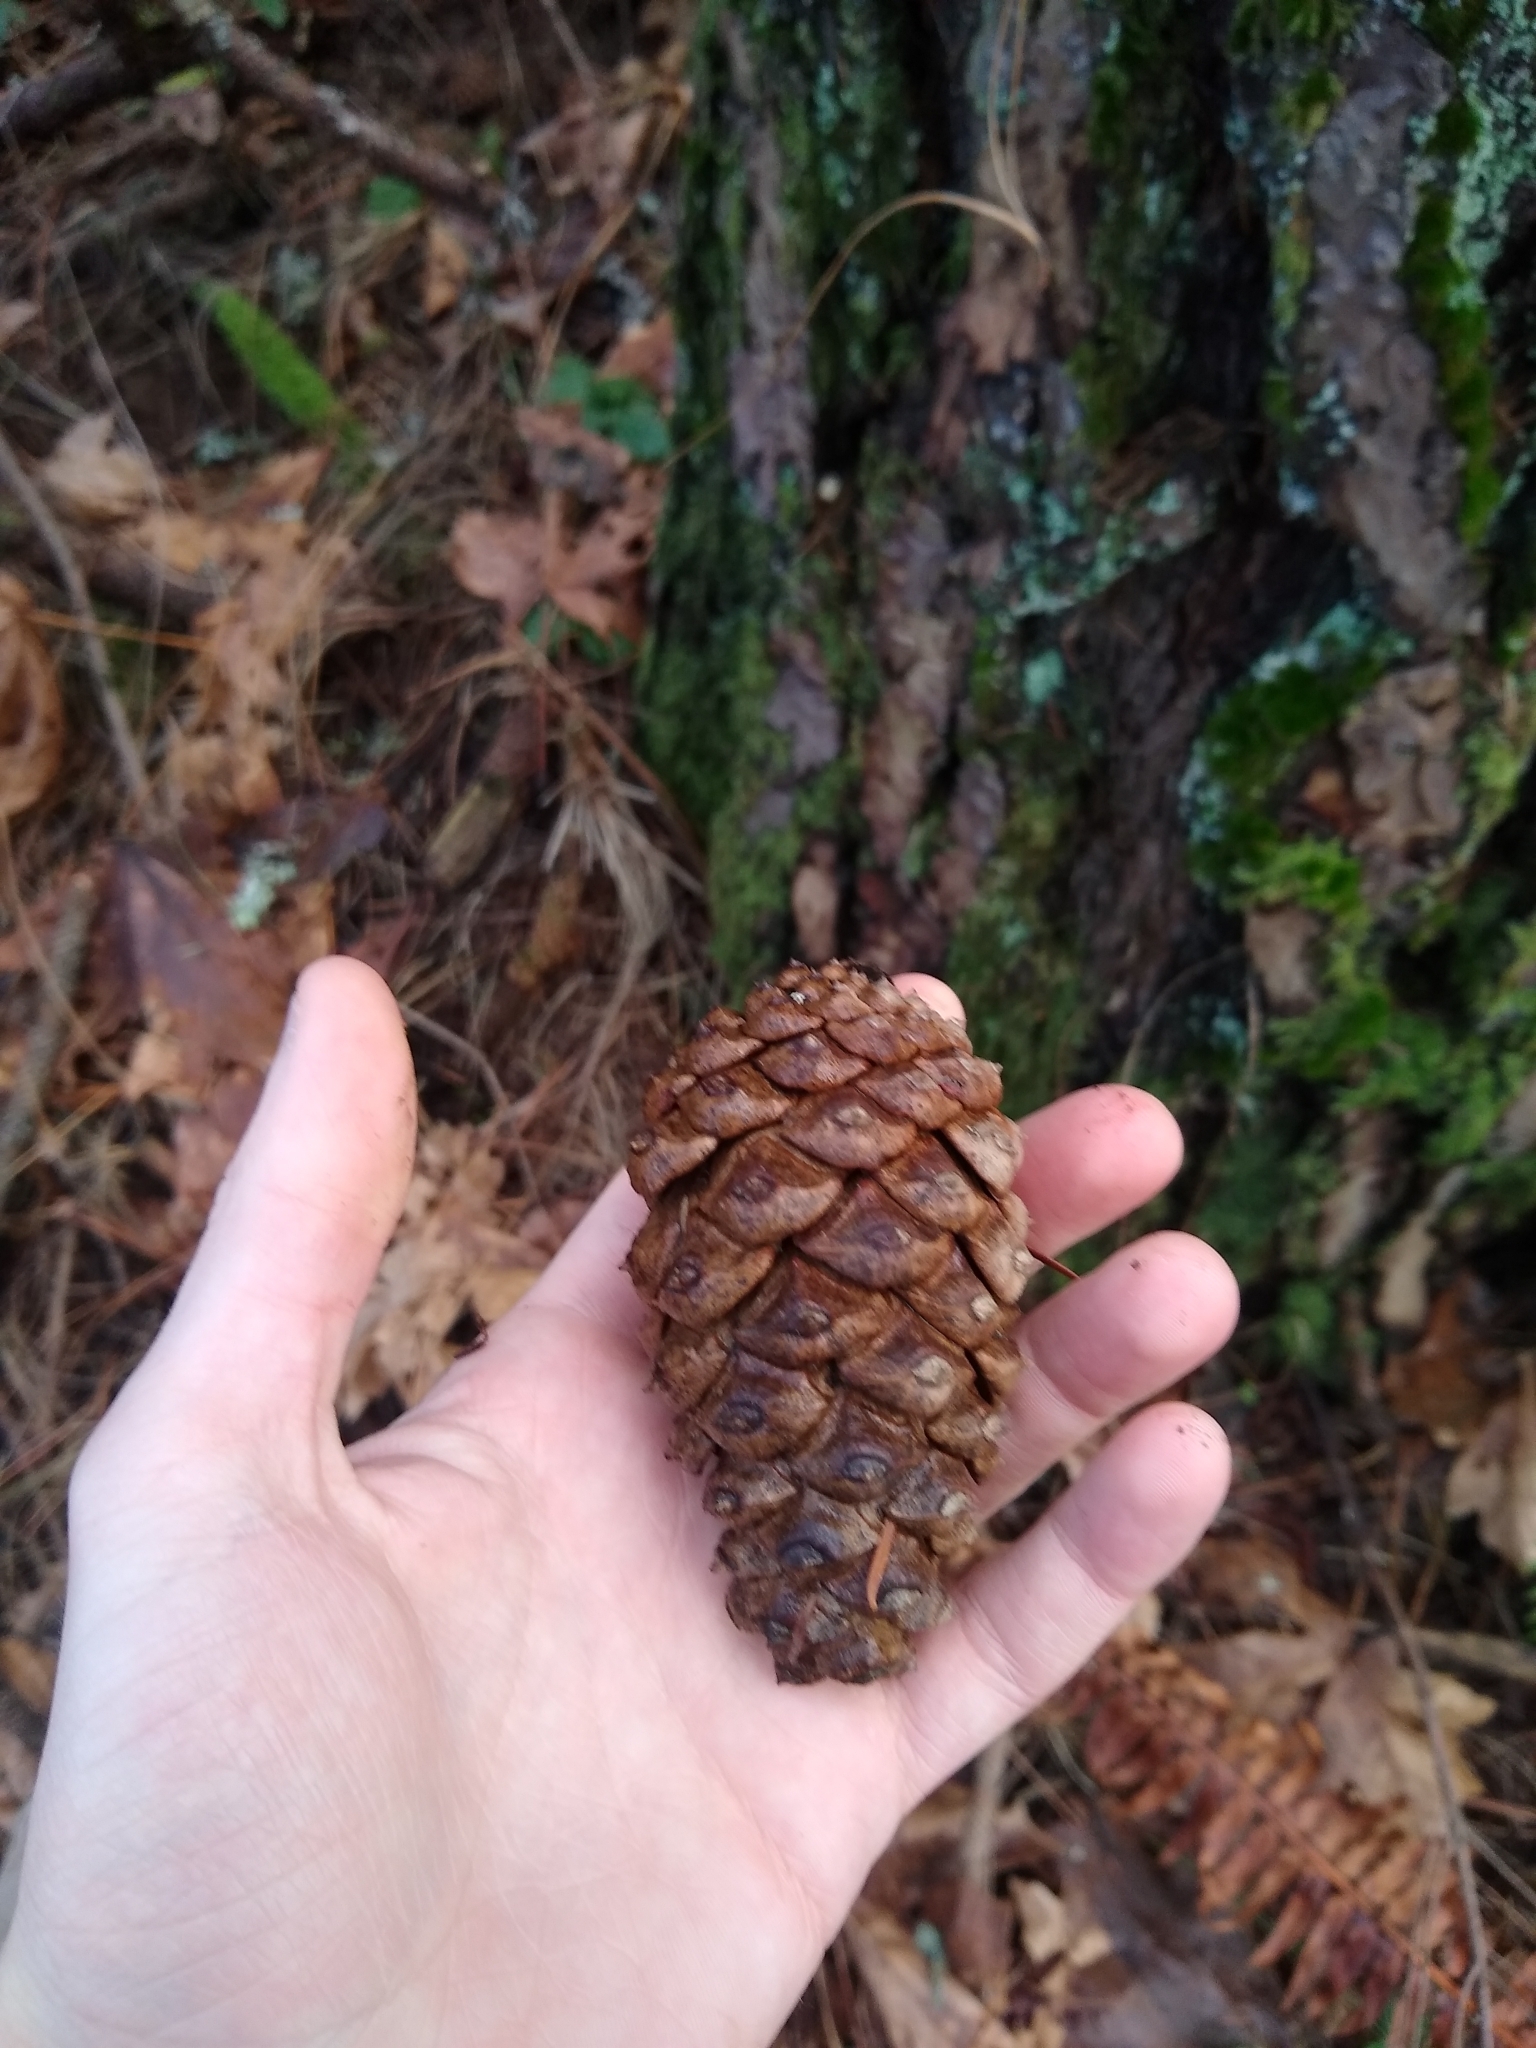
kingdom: Plantae
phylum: Tracheophyta
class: Pinopsida
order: Pinales
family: Pinaceae
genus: Pinus
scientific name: Pinus ponderosa
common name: Western yellow-pine
